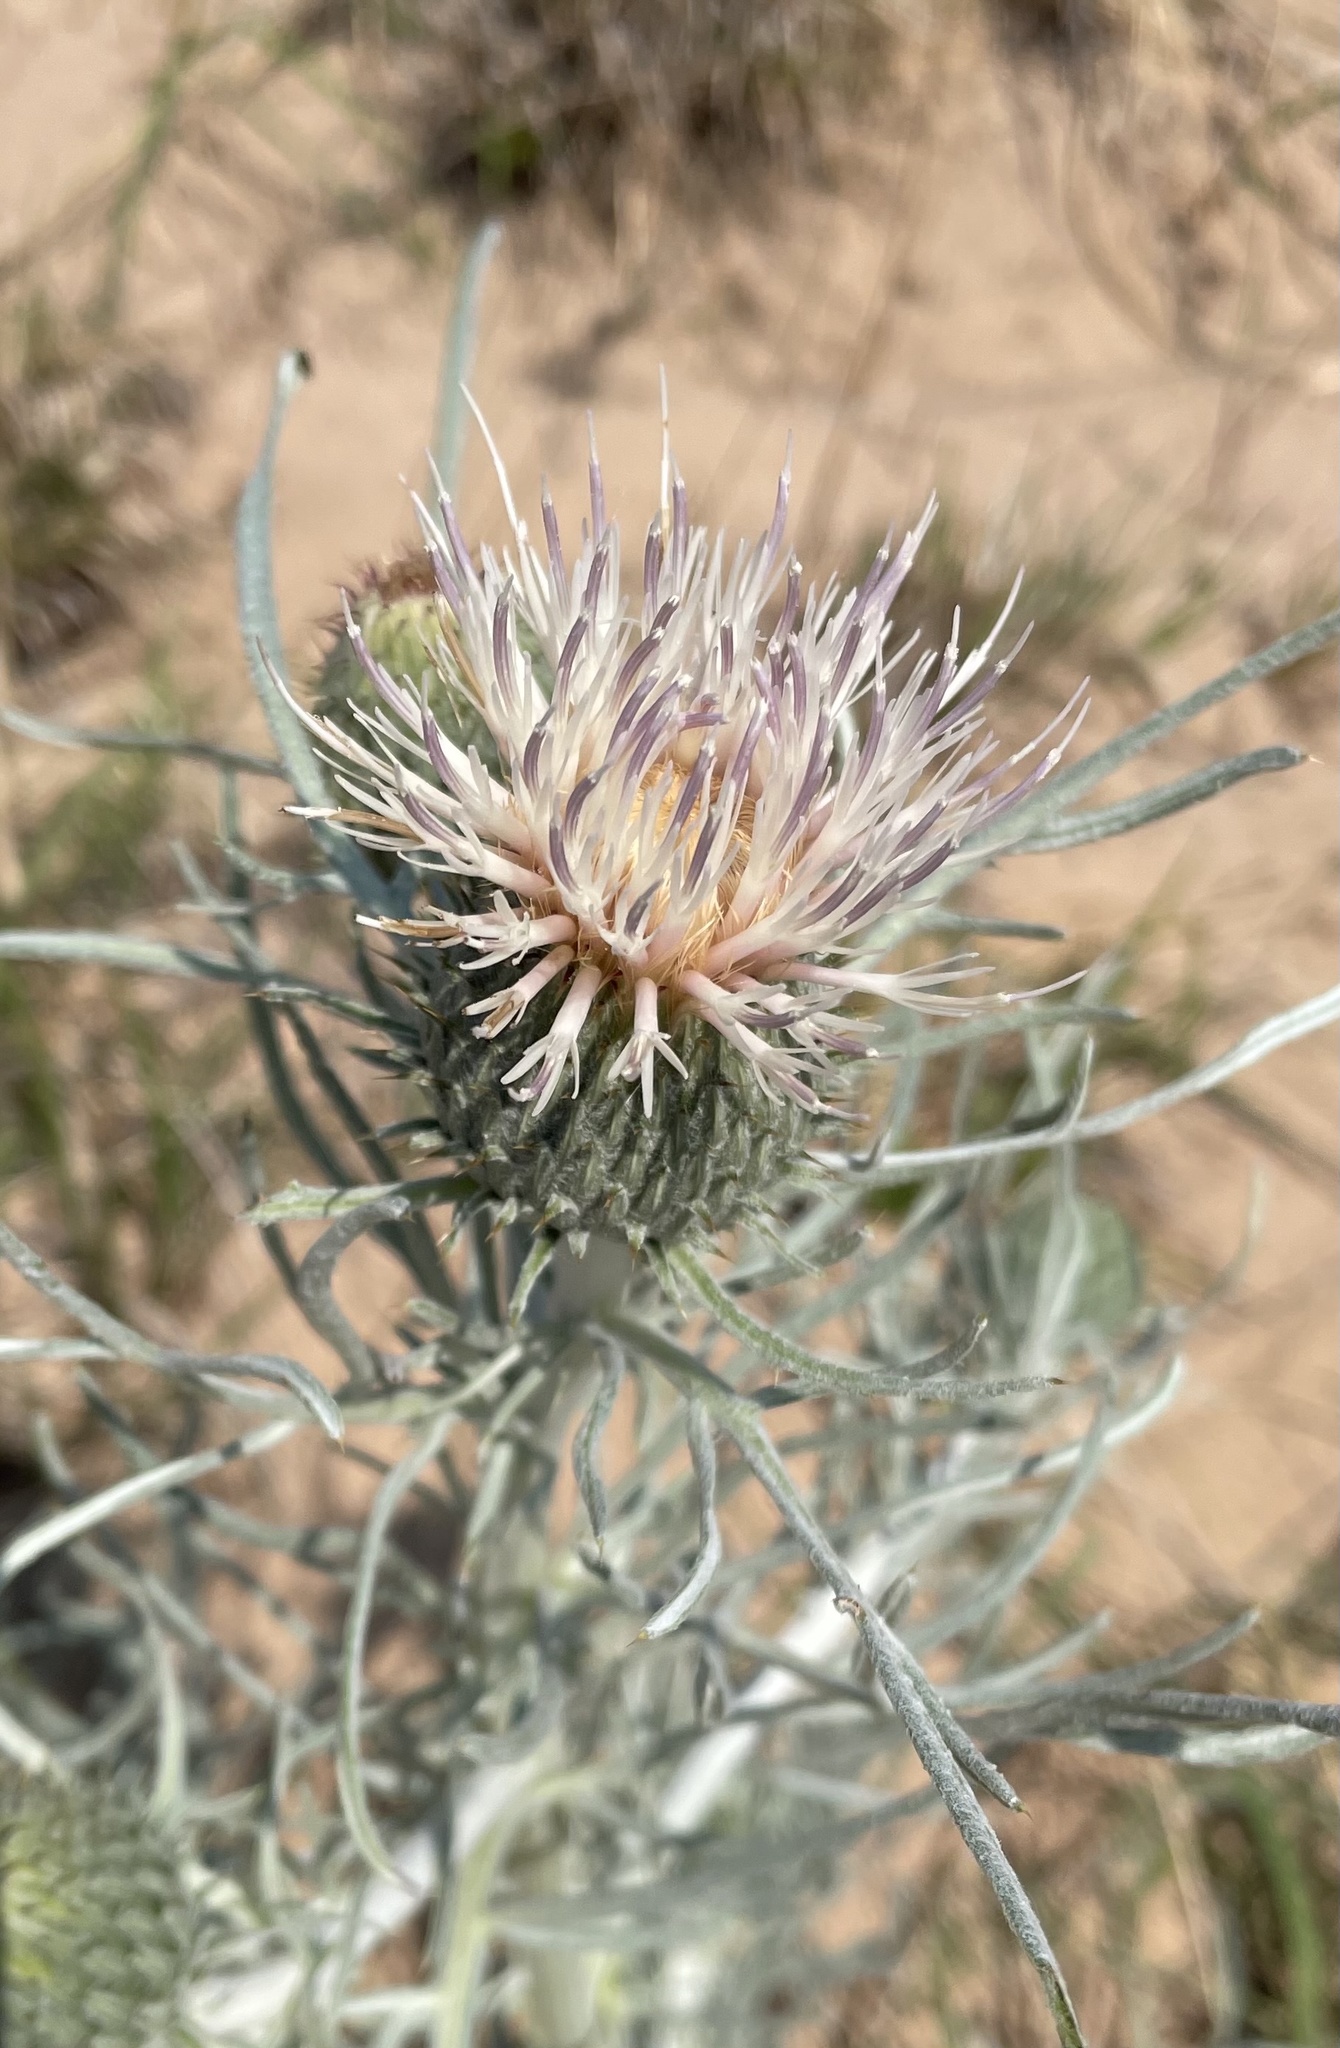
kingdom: Plantae
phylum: Tracheophyta
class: Magnoliopsida
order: Asterales
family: Asteraceae
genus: Cirsium
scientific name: Cirsium pitcheri
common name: Dune thistle
